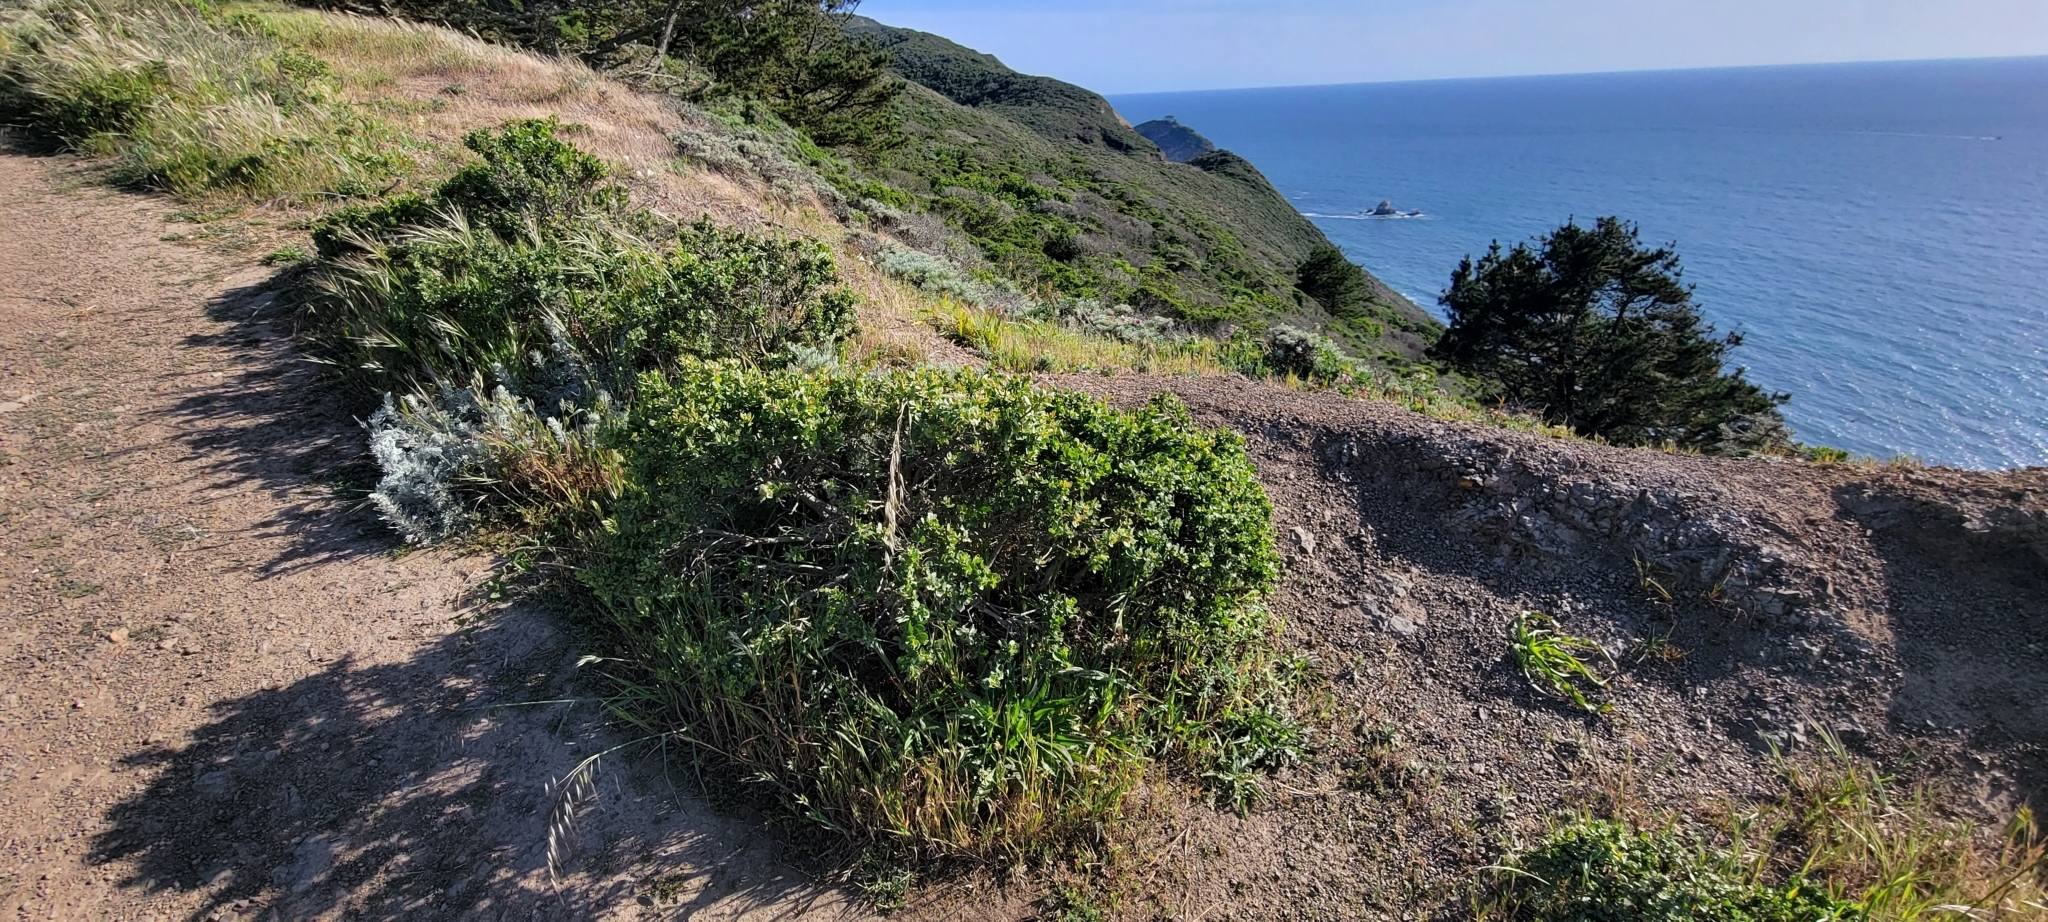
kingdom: Plantae
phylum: Tracheophyta
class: Magnoliopsida
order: Asterales
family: Asteraceae
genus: Baccharis
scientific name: Baccharis pilularis
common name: Coyotebrush
